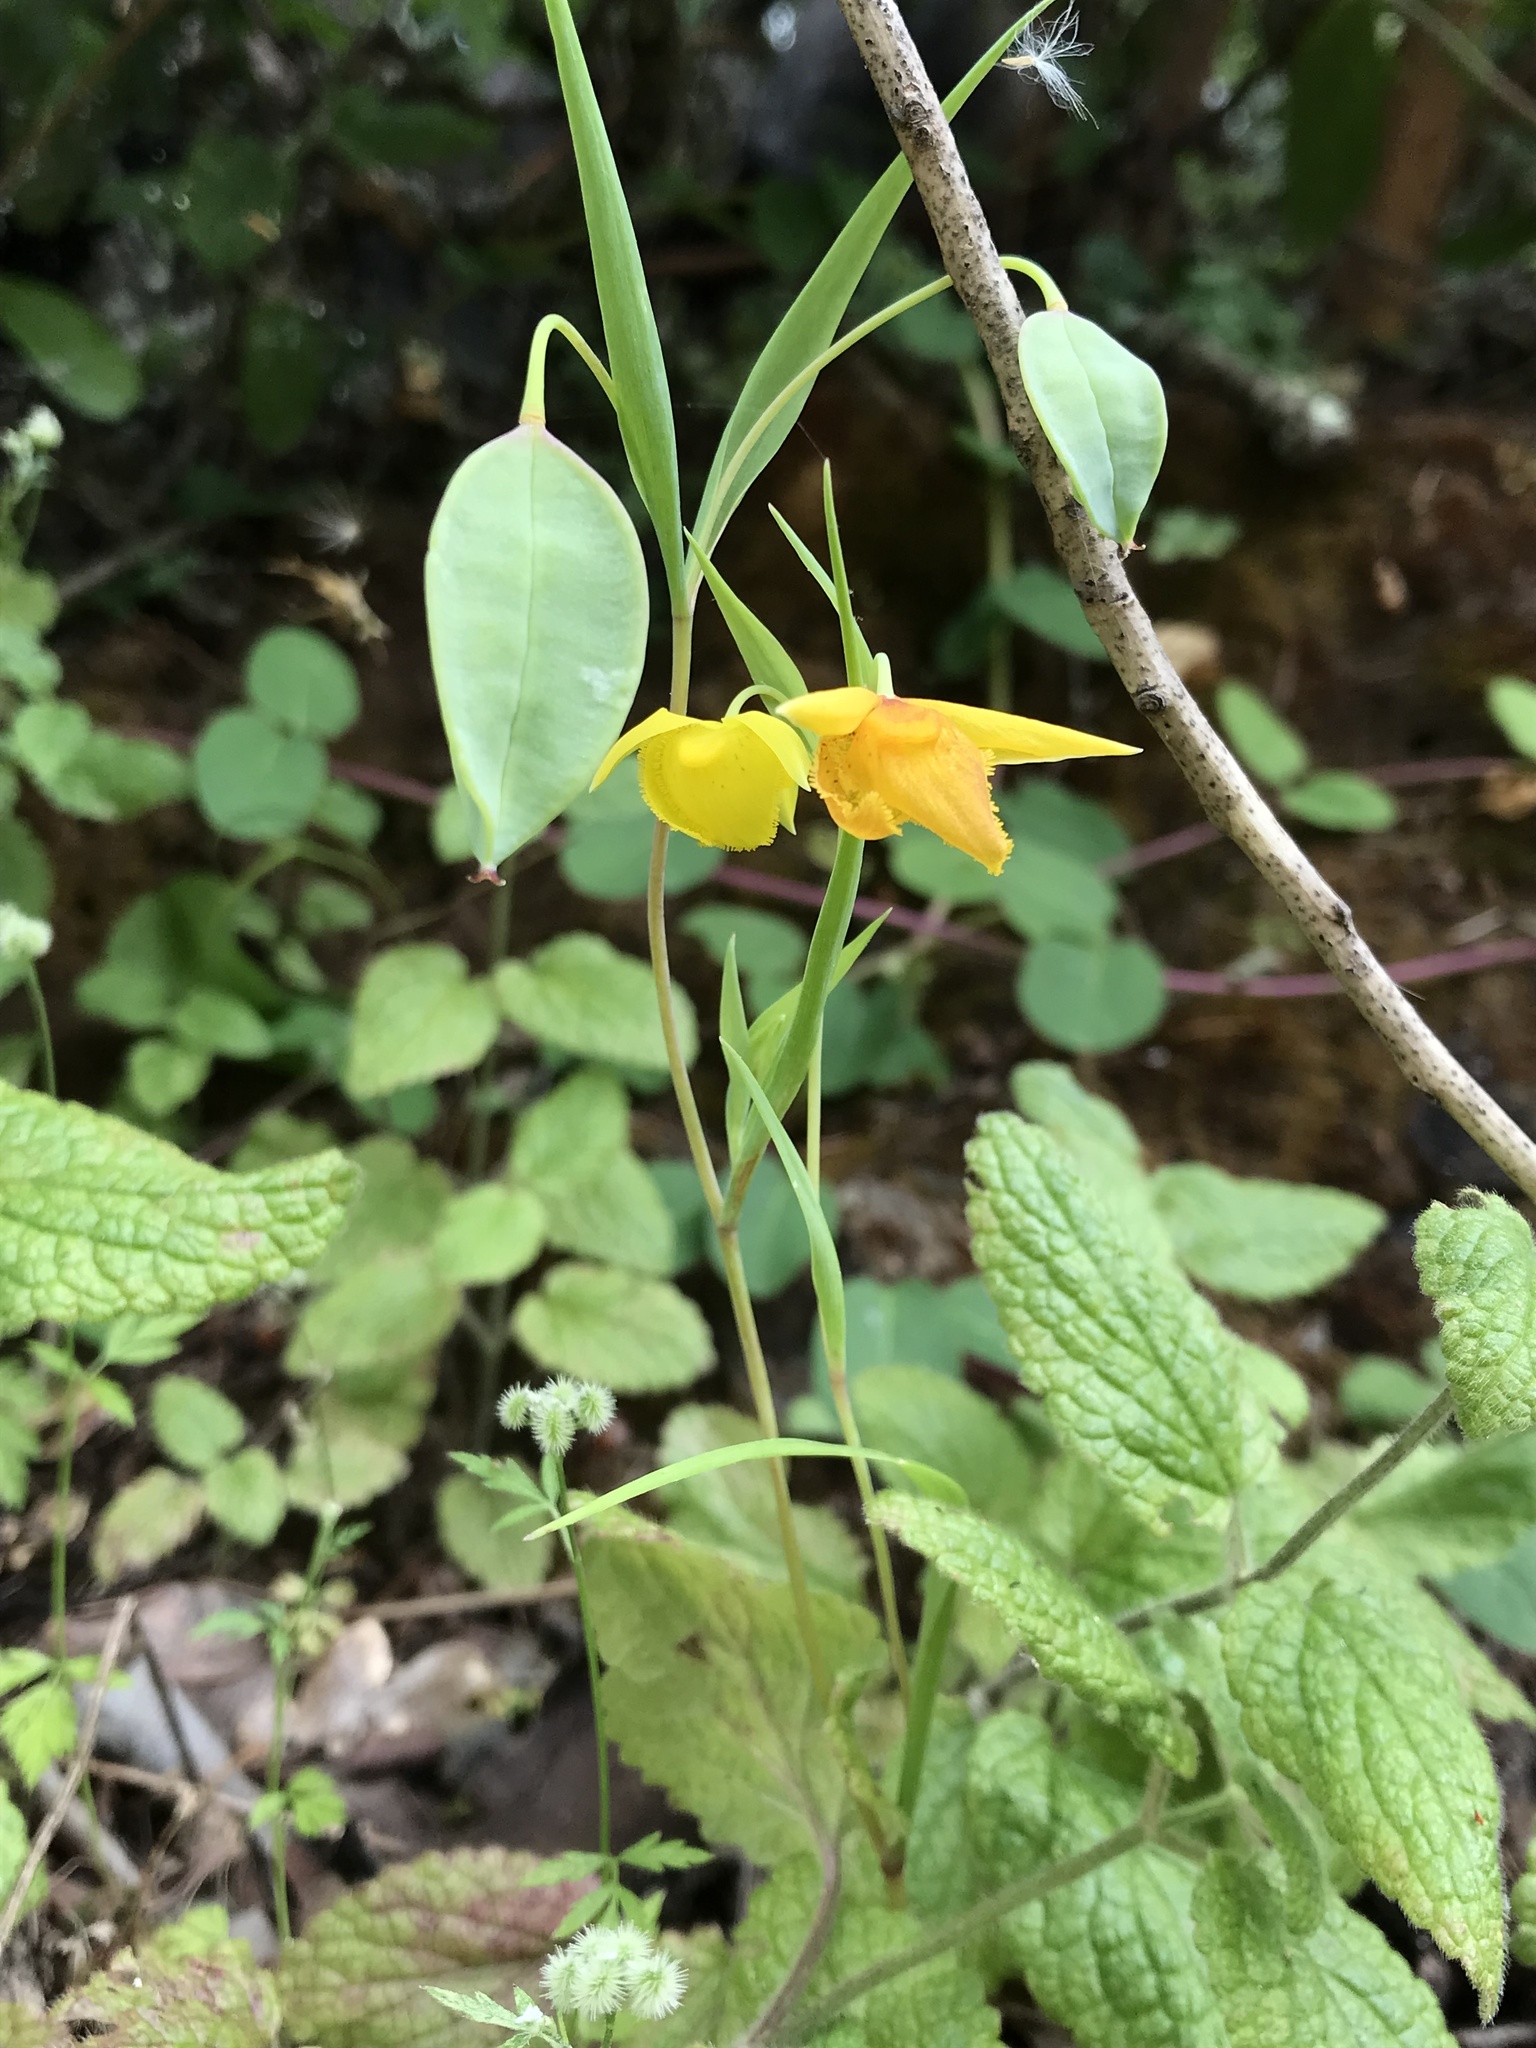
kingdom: Plantae
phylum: Tracheophyta
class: Liliopsida
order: Liliales
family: Liliaceae
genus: Calochortus
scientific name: Calochortus amabilis
